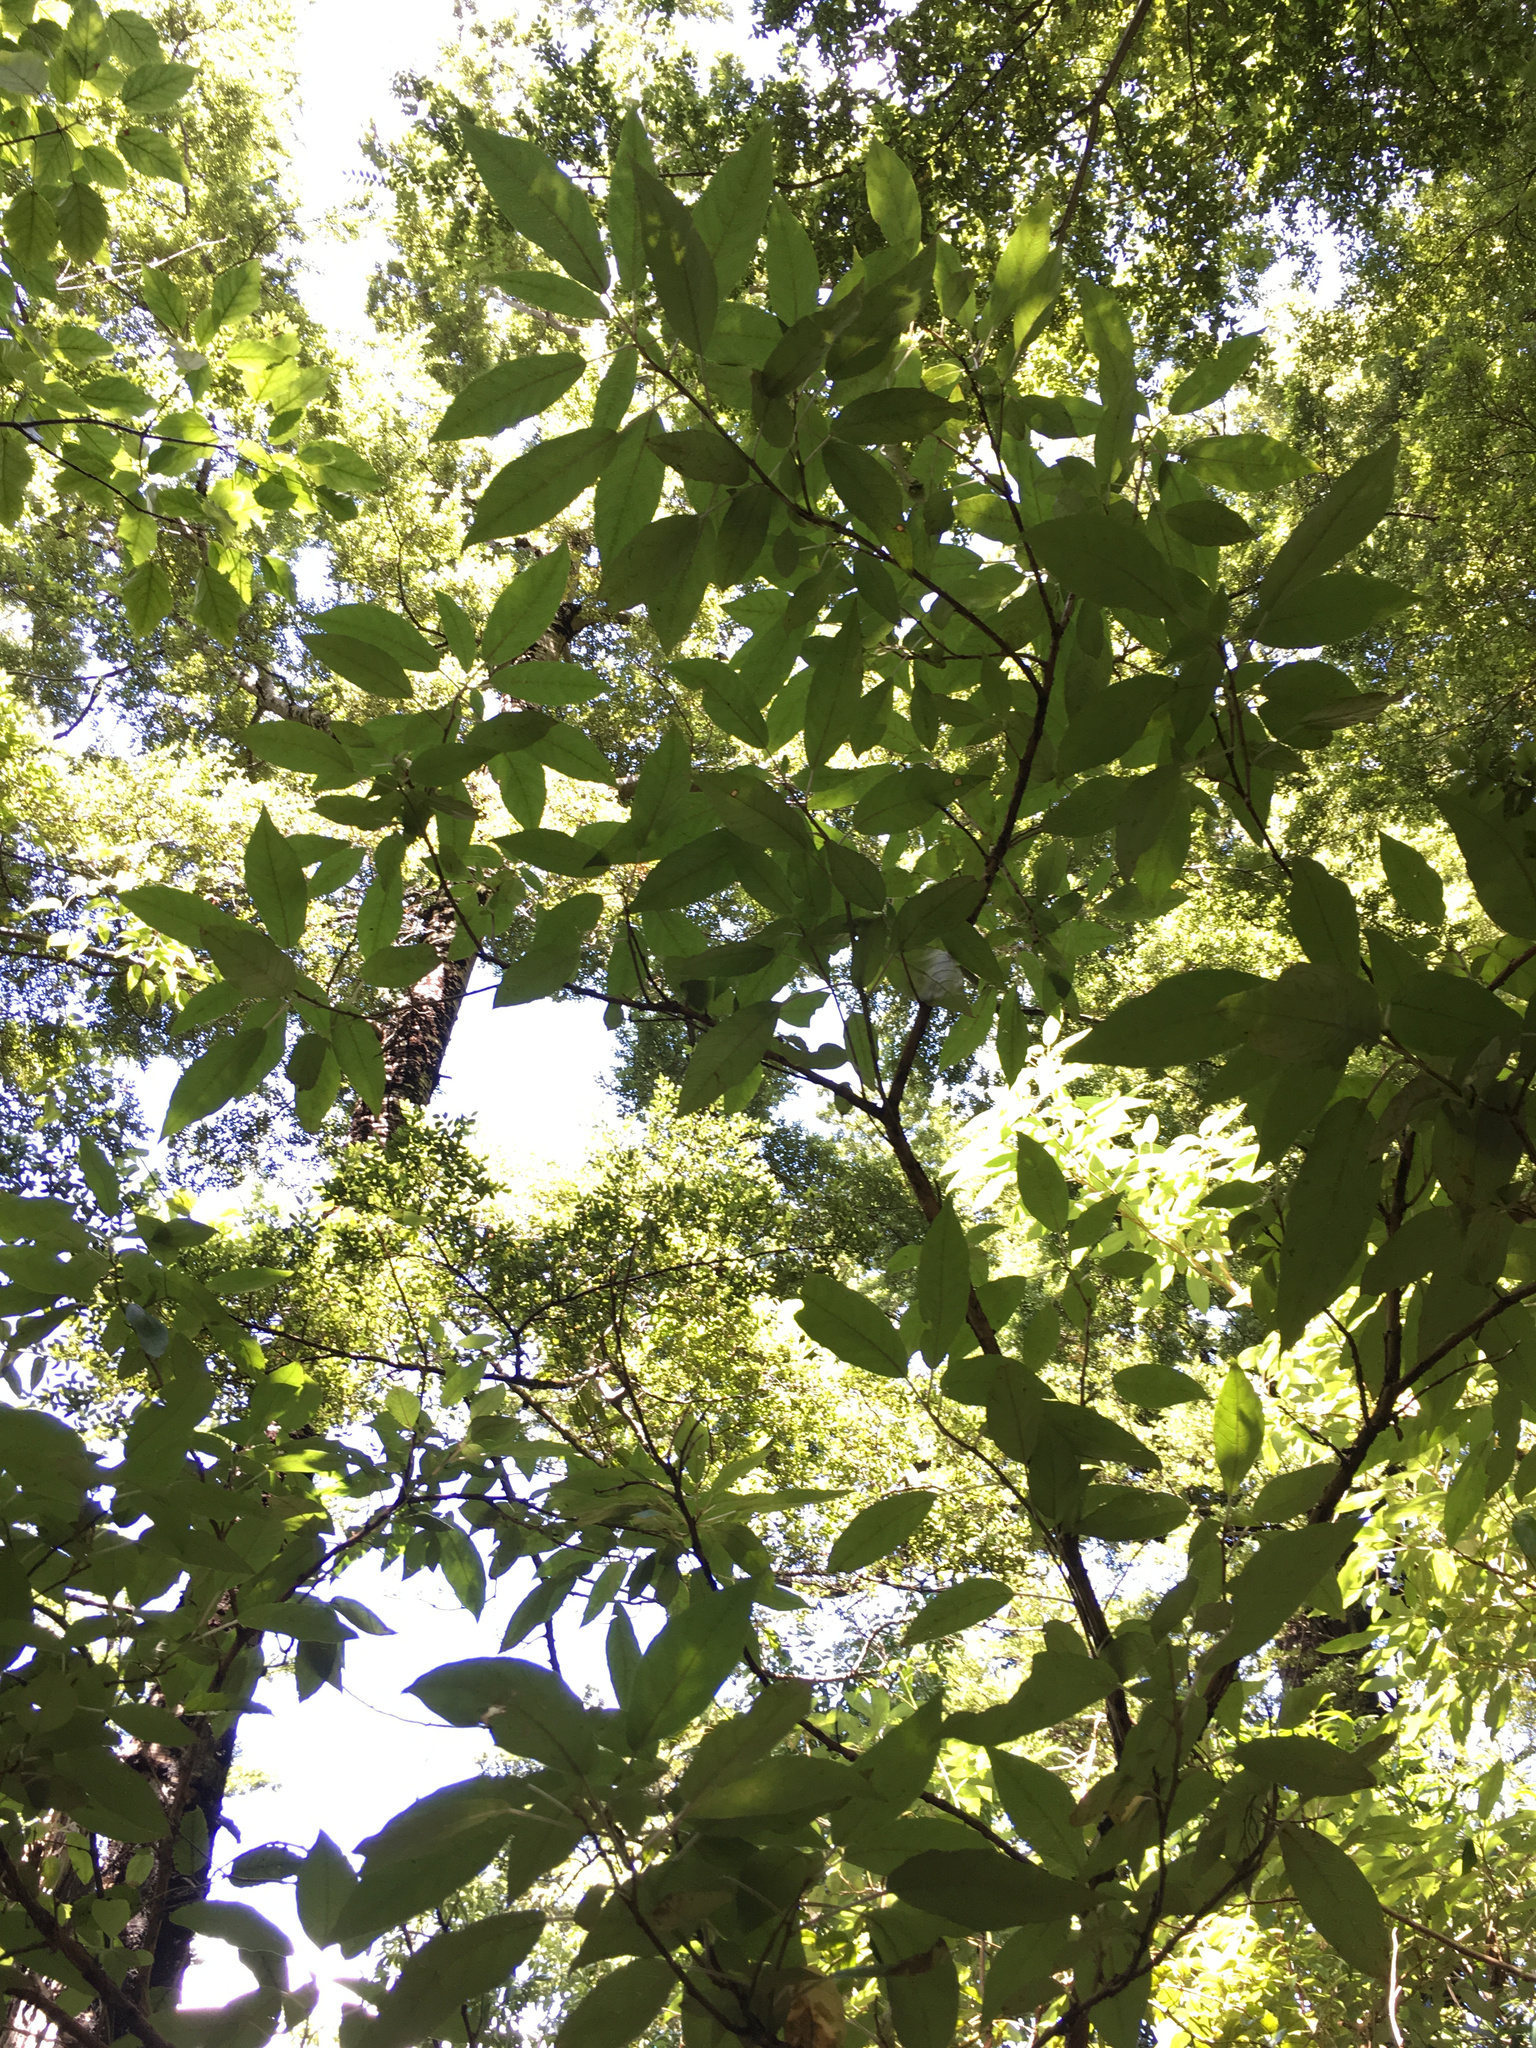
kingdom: Plantae
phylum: Tracheophyta
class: Magnoliopsida
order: Myrtales
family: Onagraceae
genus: Fuchsia
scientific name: Fuchsia excorticata
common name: Tree fuchsia
